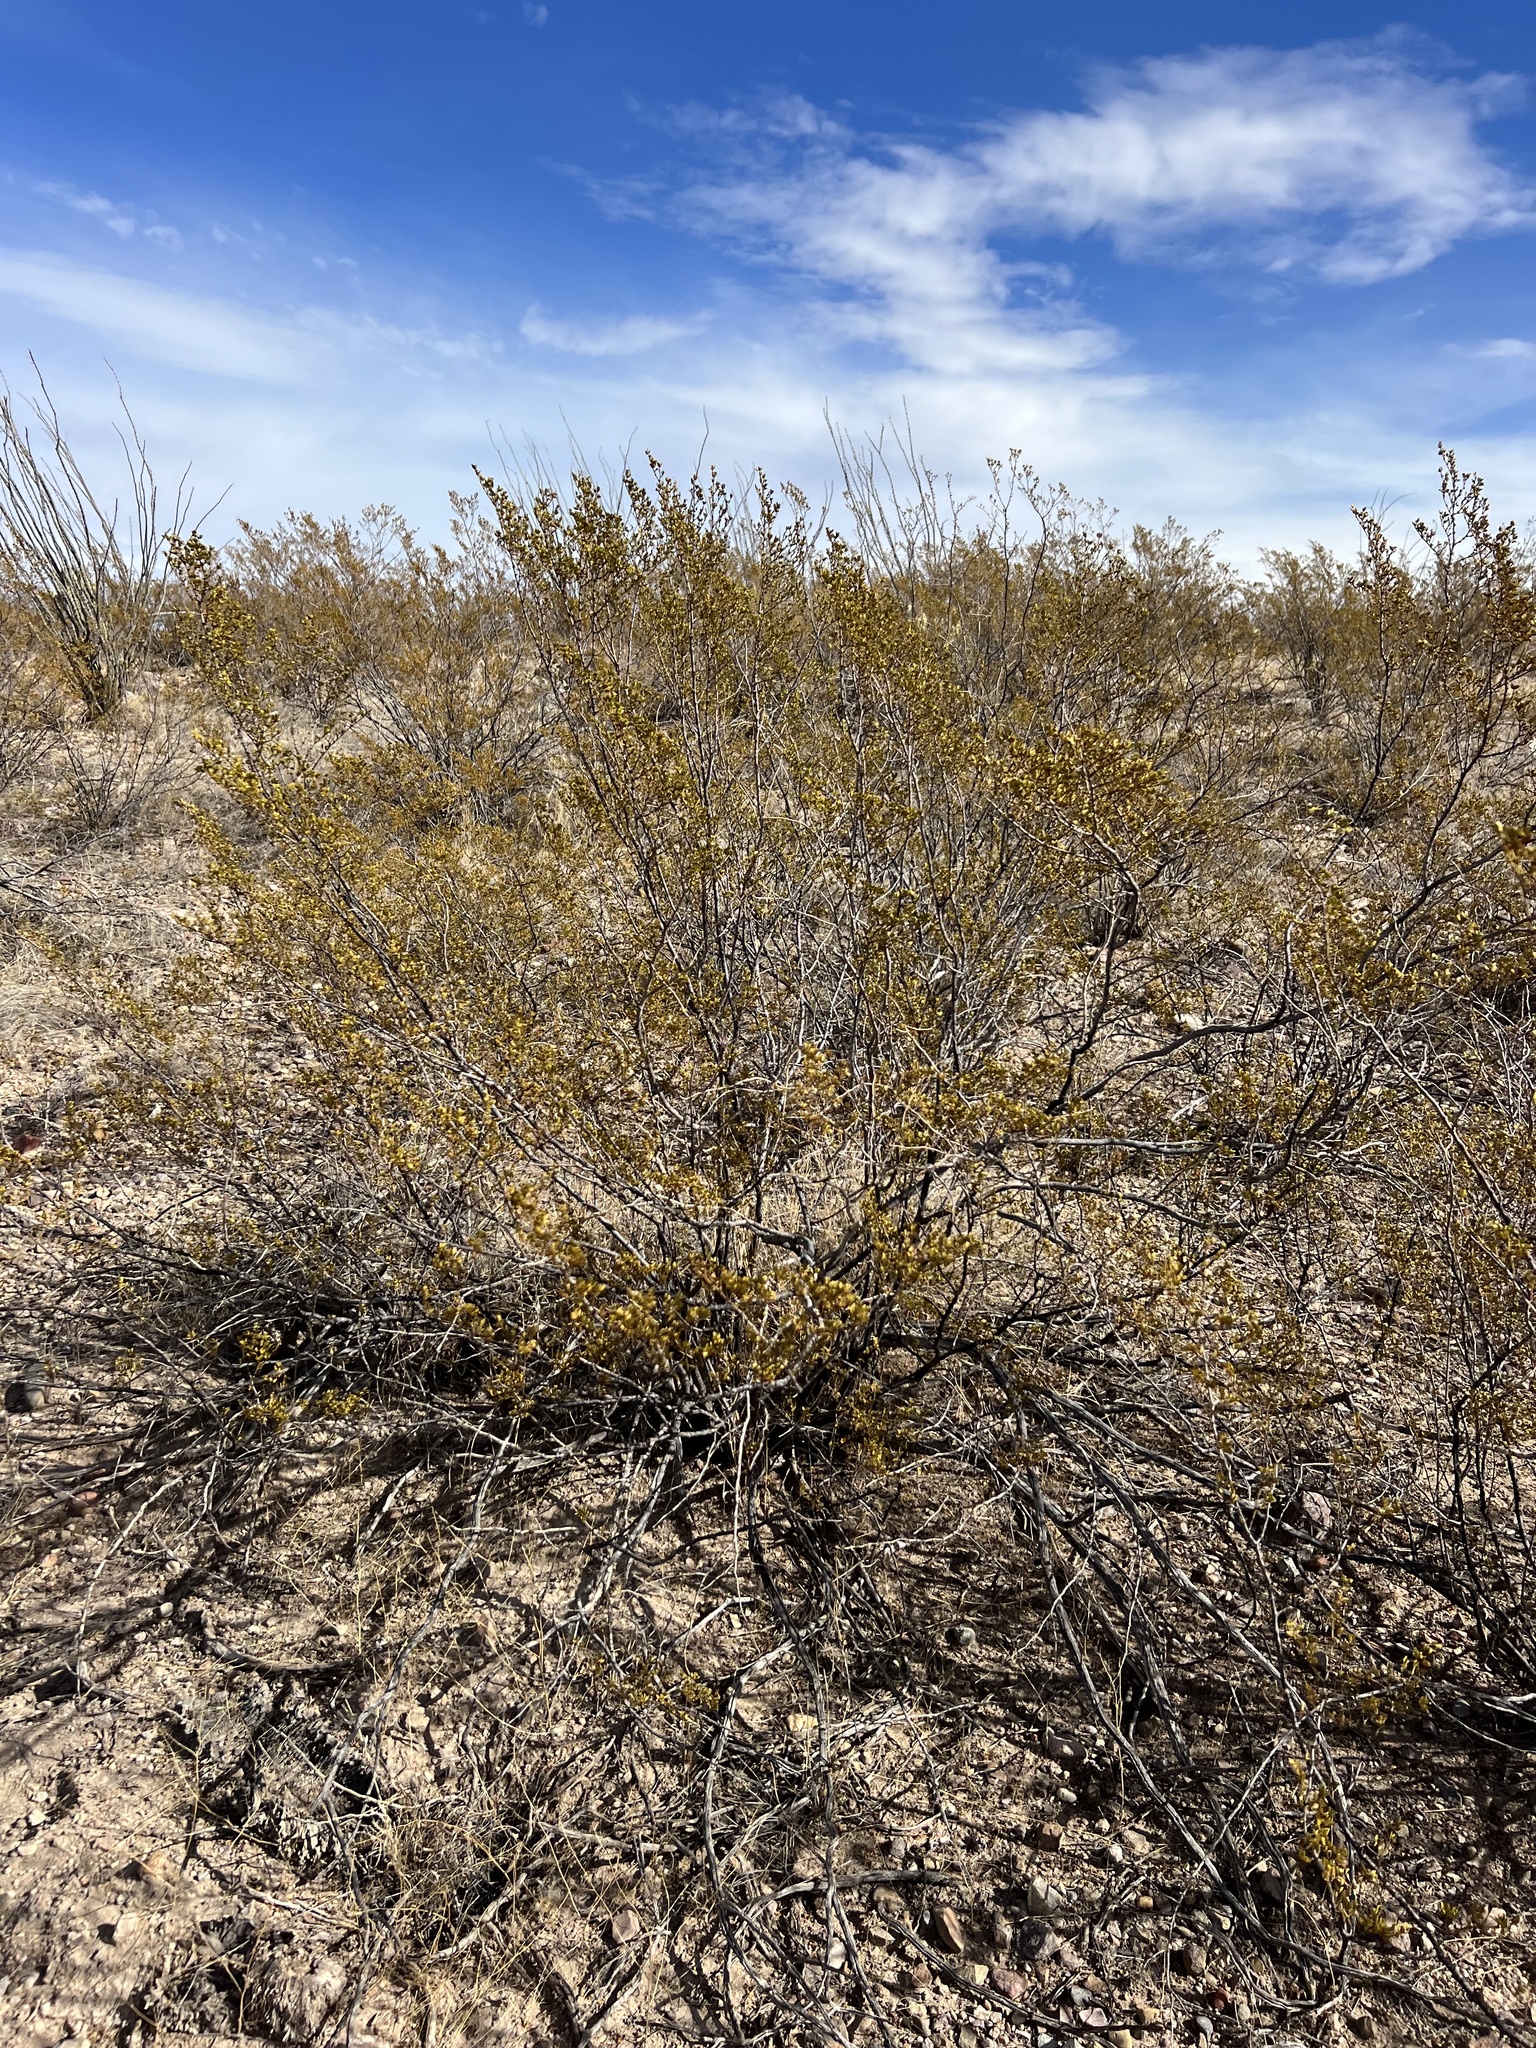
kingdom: Plantae
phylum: Tracheophyta
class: Magnoliopsida
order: Zygophyllales
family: Zygophyllaceae
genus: Larrea
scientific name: Larrea tridentata
